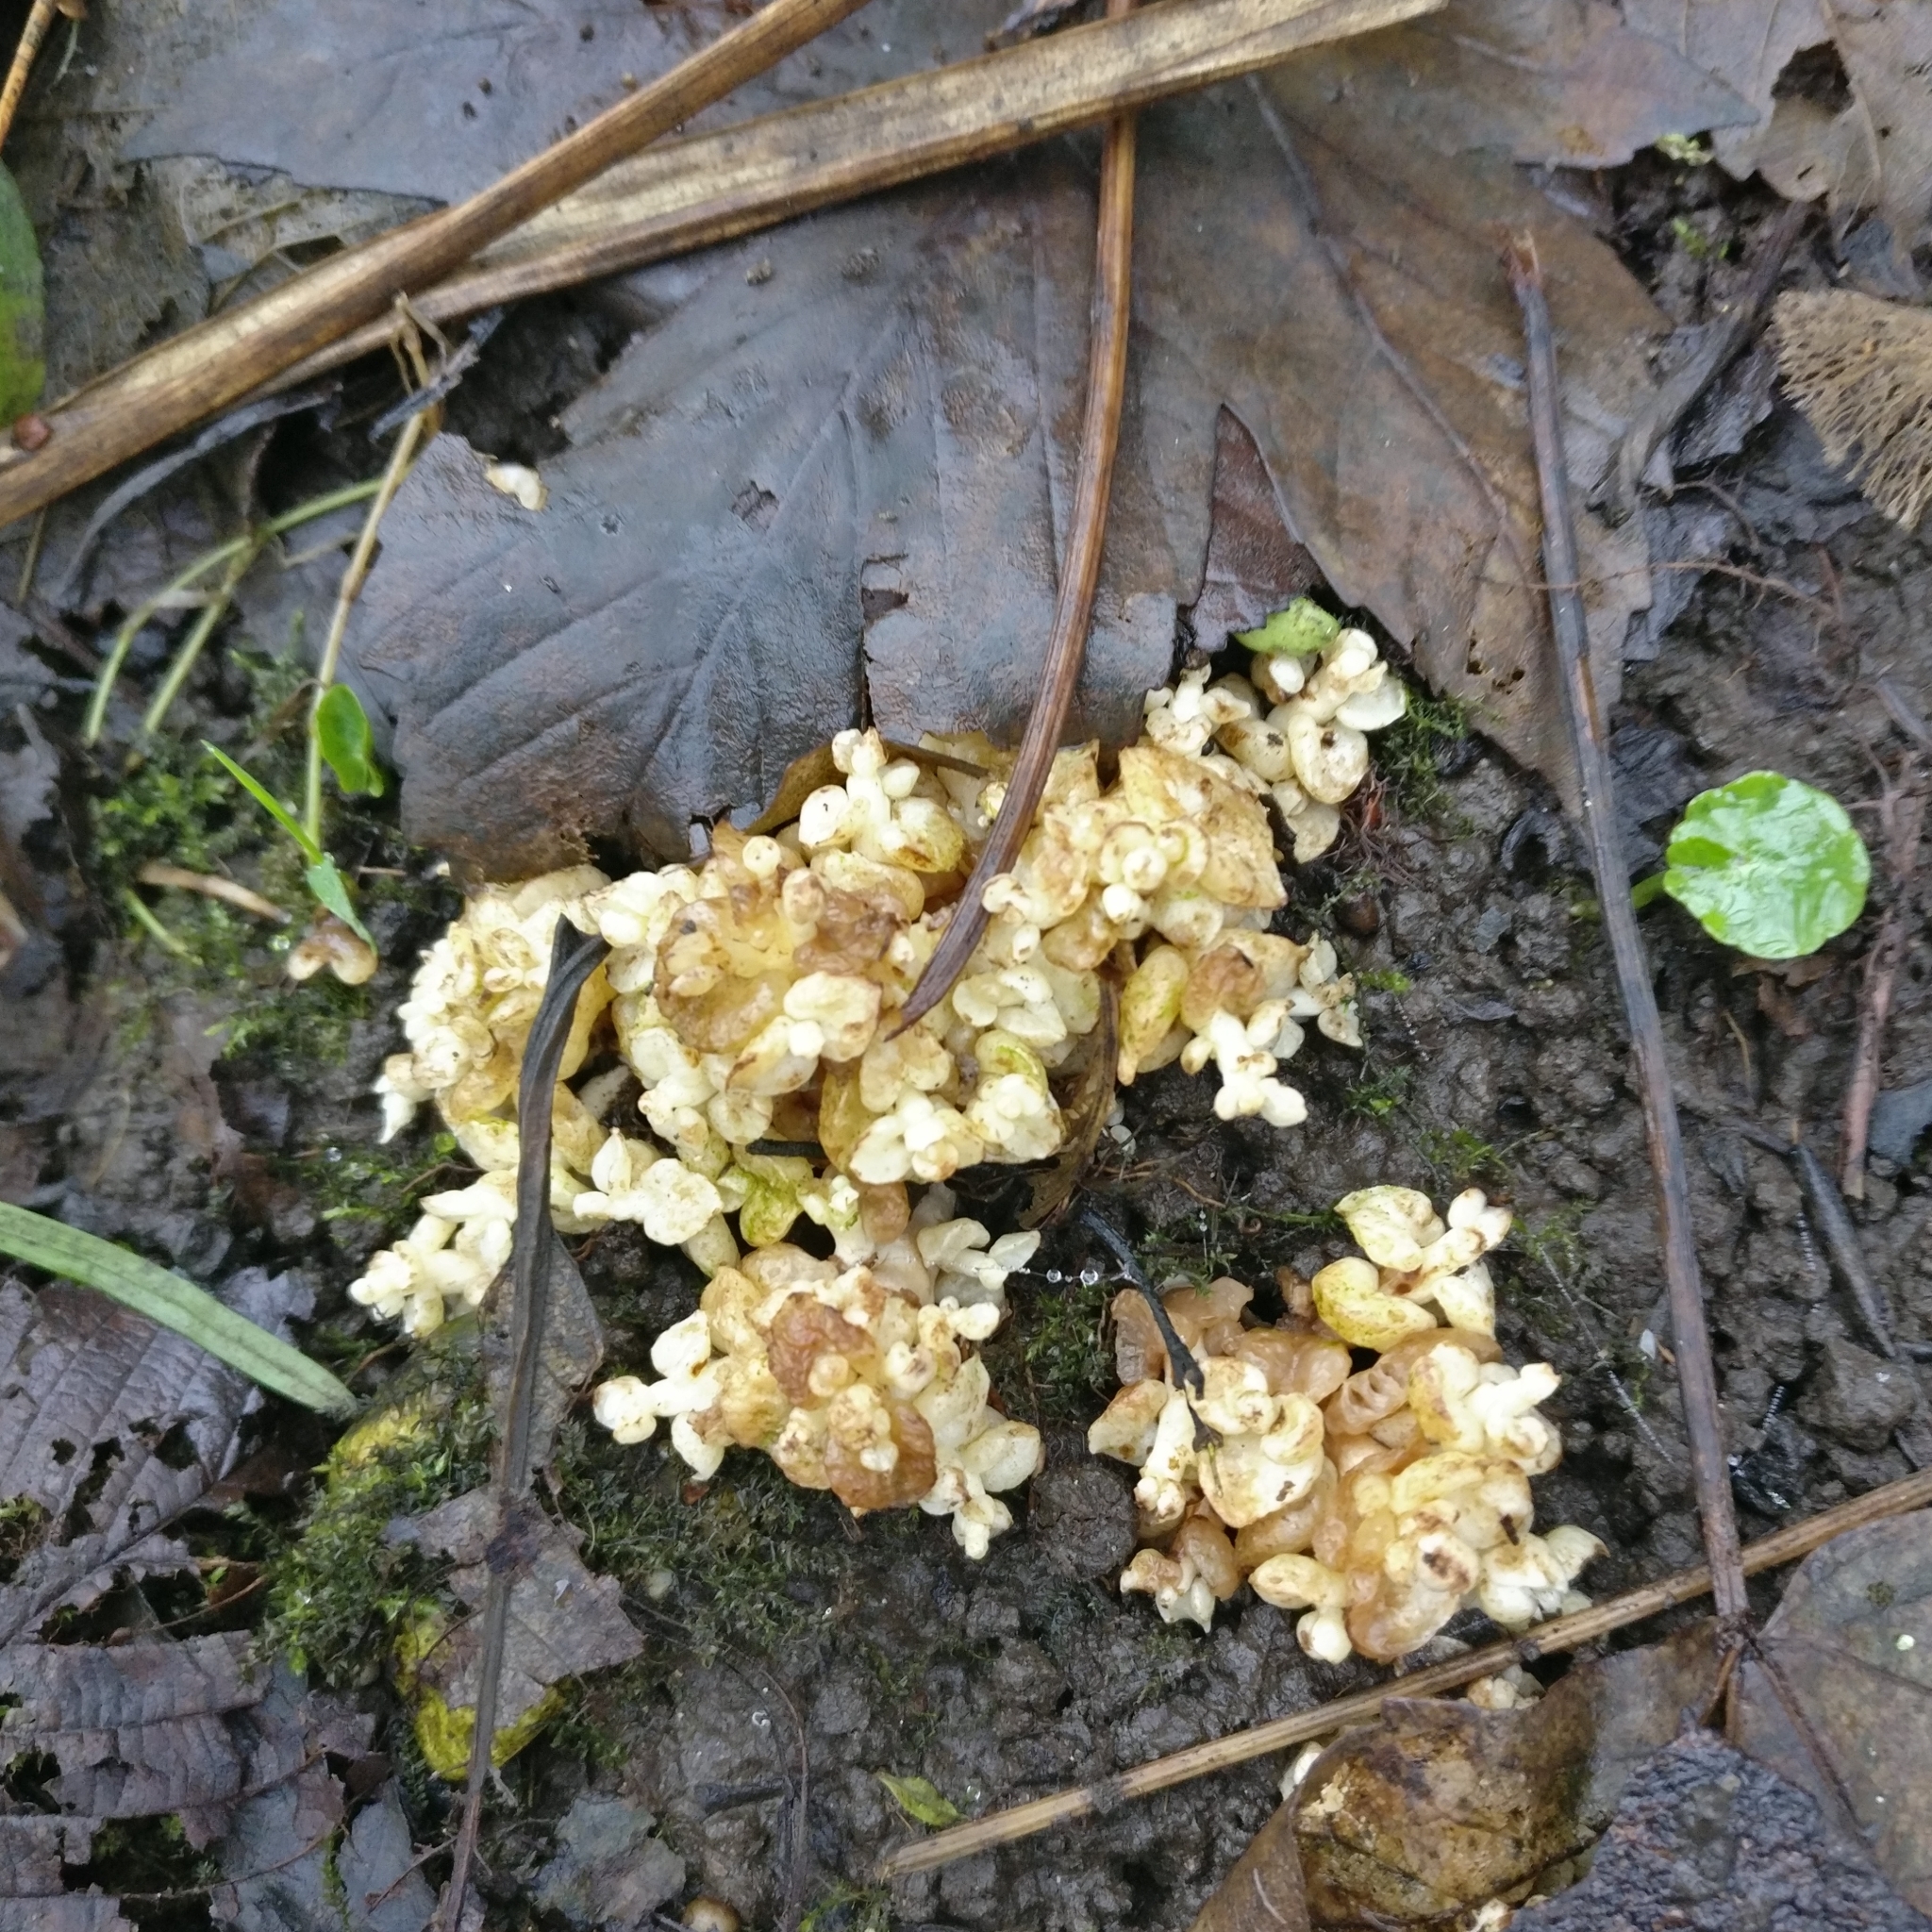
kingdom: Plantae
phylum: Tracheophyta
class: Magnoliopsida
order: Lamiales
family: Orobanchaceae
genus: Lathraea
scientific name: Lathraea clandestina
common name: Purple toothwort
